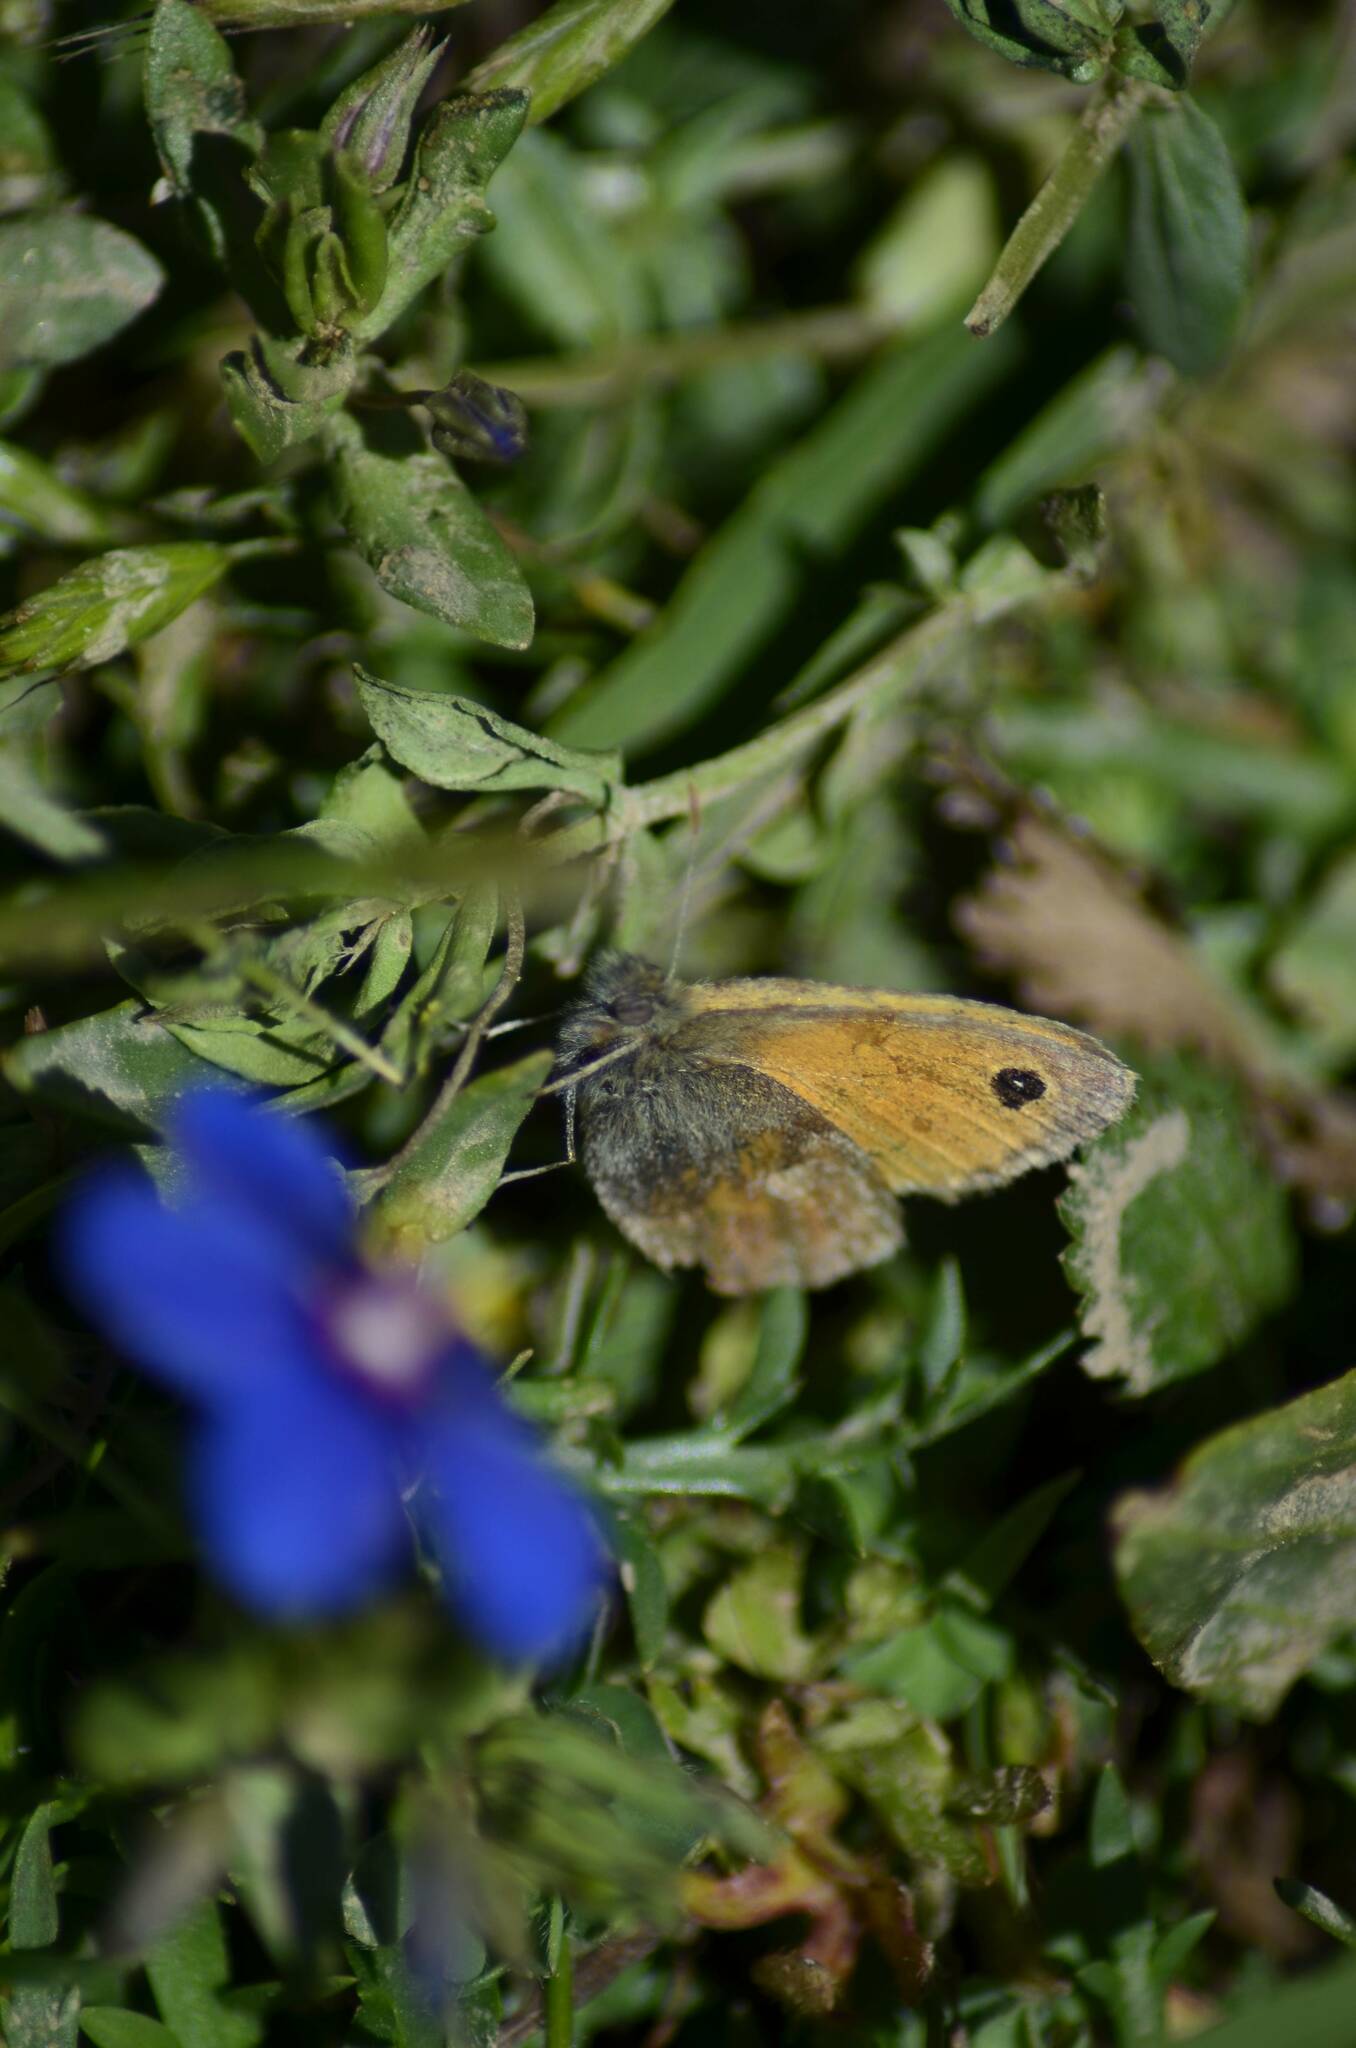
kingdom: Animalia
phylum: Arthropoda
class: Insecta
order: Lepidoptera
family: Nymphalidae
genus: Coenonympha
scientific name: Coenonympha pamphilus
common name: Small heath
